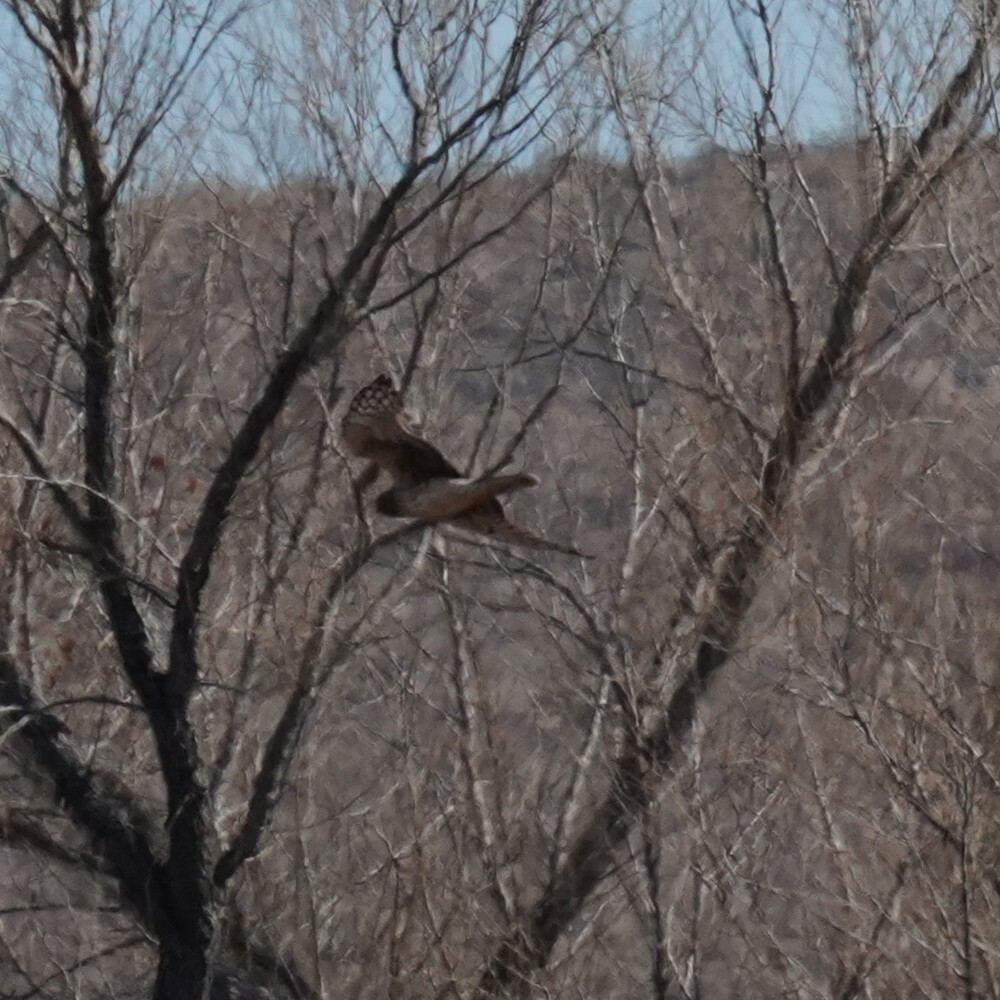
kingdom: Animalia
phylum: Chordata
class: Aves
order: Accipitriformes
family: Accipitridae
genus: Circus
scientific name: Circus cyaneus
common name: Hen harrier
